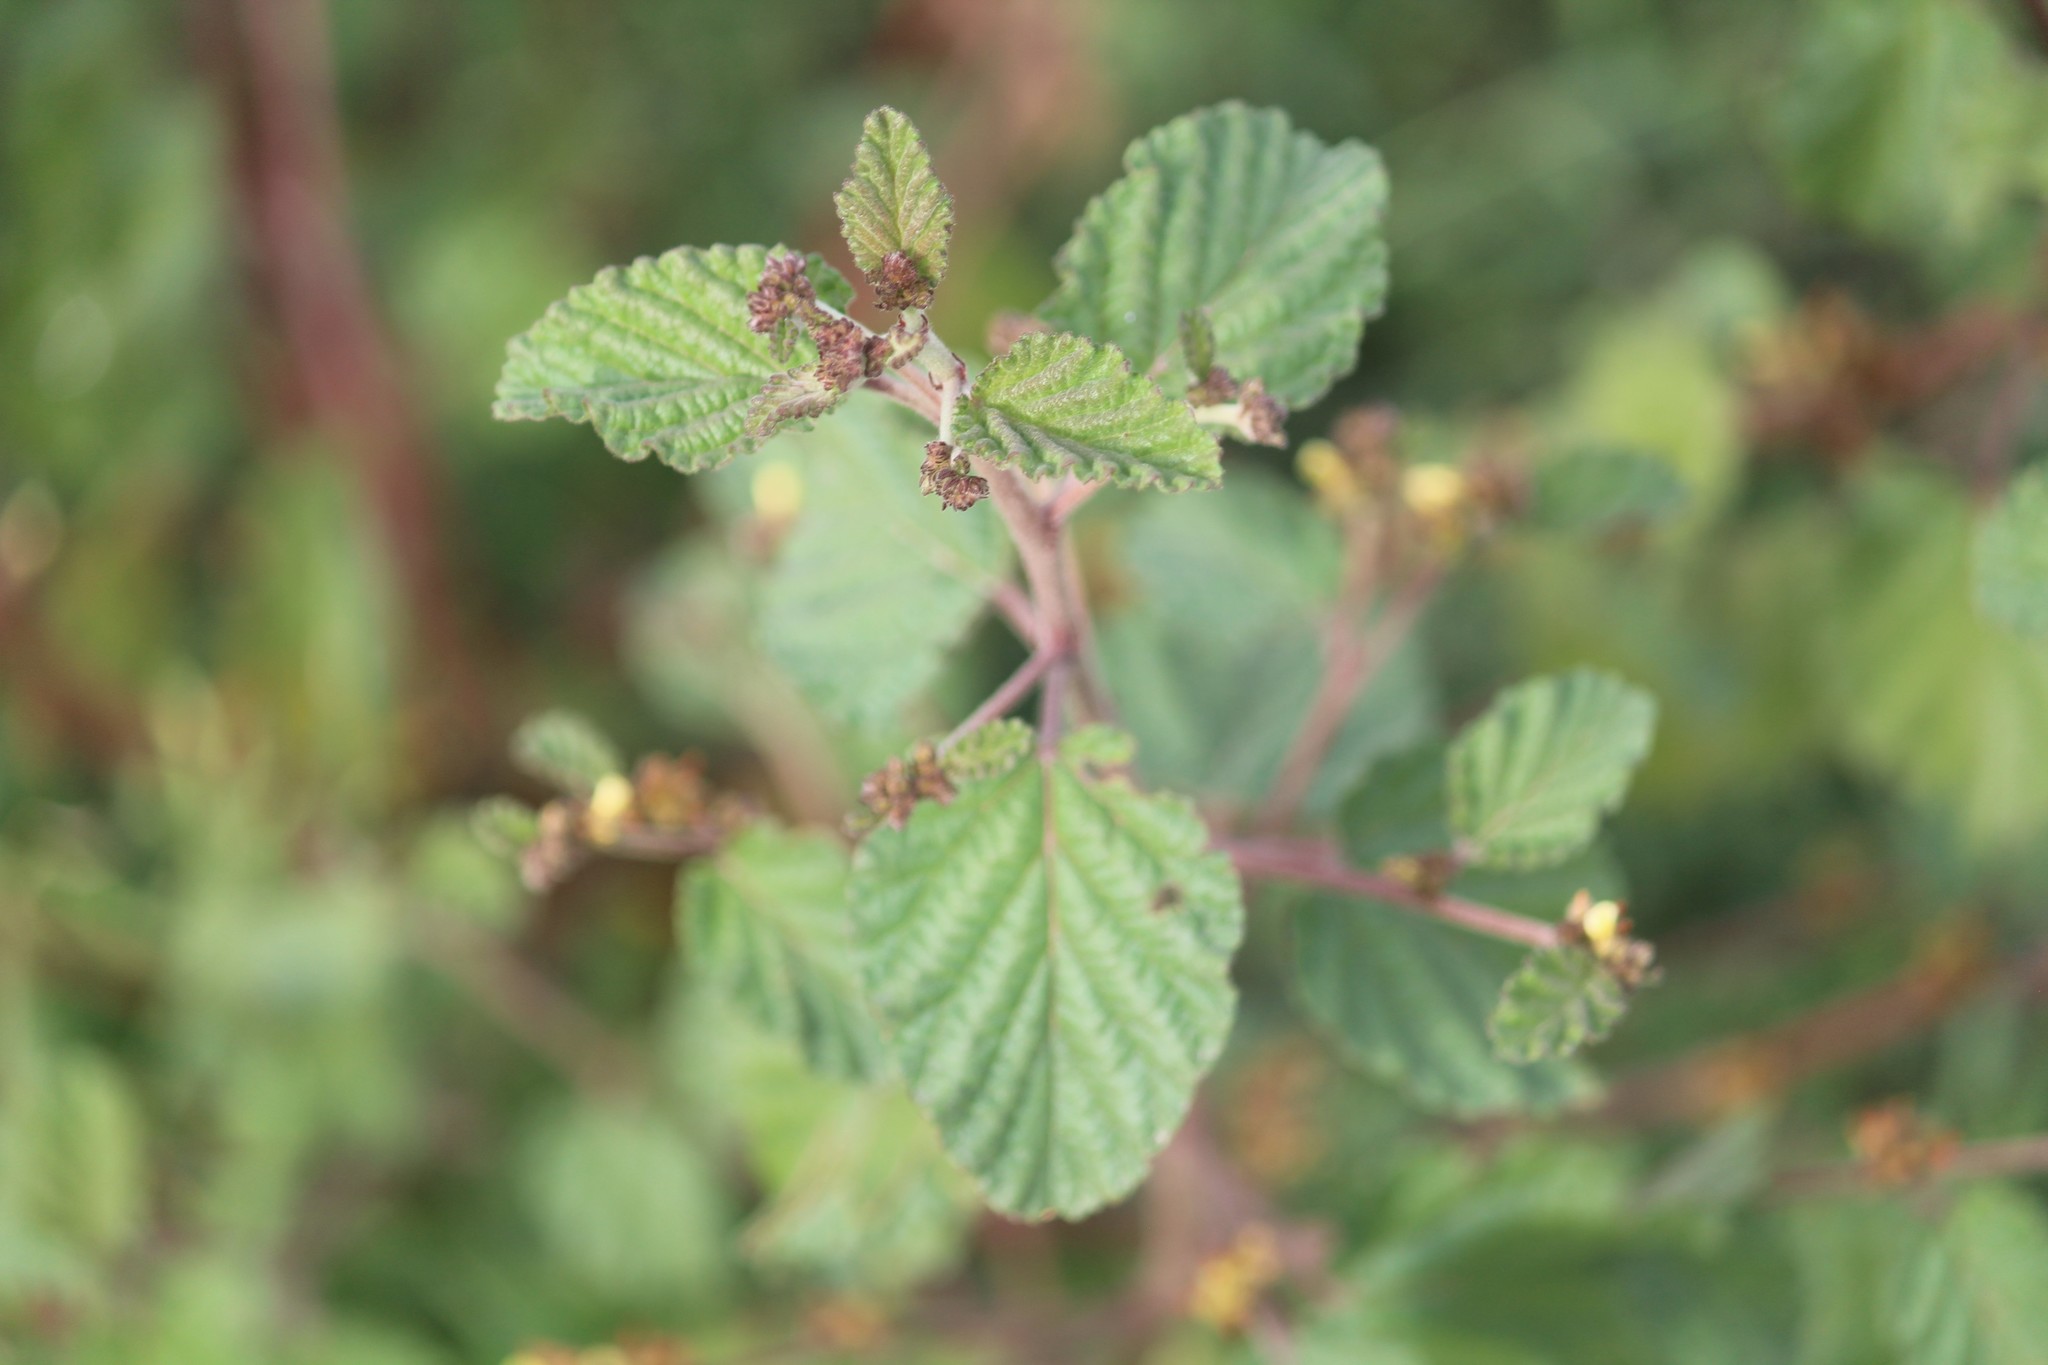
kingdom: Plantae
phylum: Tracheophyta
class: Magnoliopsida
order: Malvales
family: Malvaceae
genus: Waltheria
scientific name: Waltheria indica
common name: Leather-coat
